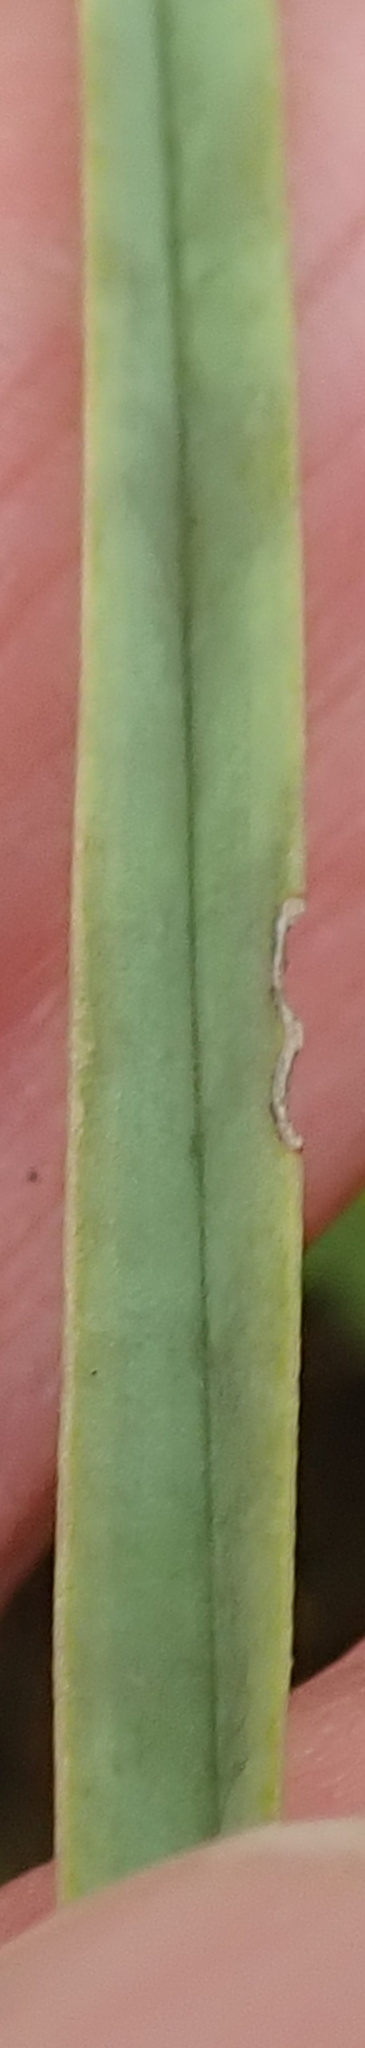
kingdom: Plantae
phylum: Tracheophyta
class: Liliopsida
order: Asparagales
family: Asphodelaceae
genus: Kniphofia
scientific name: Kniphofia buchananii
